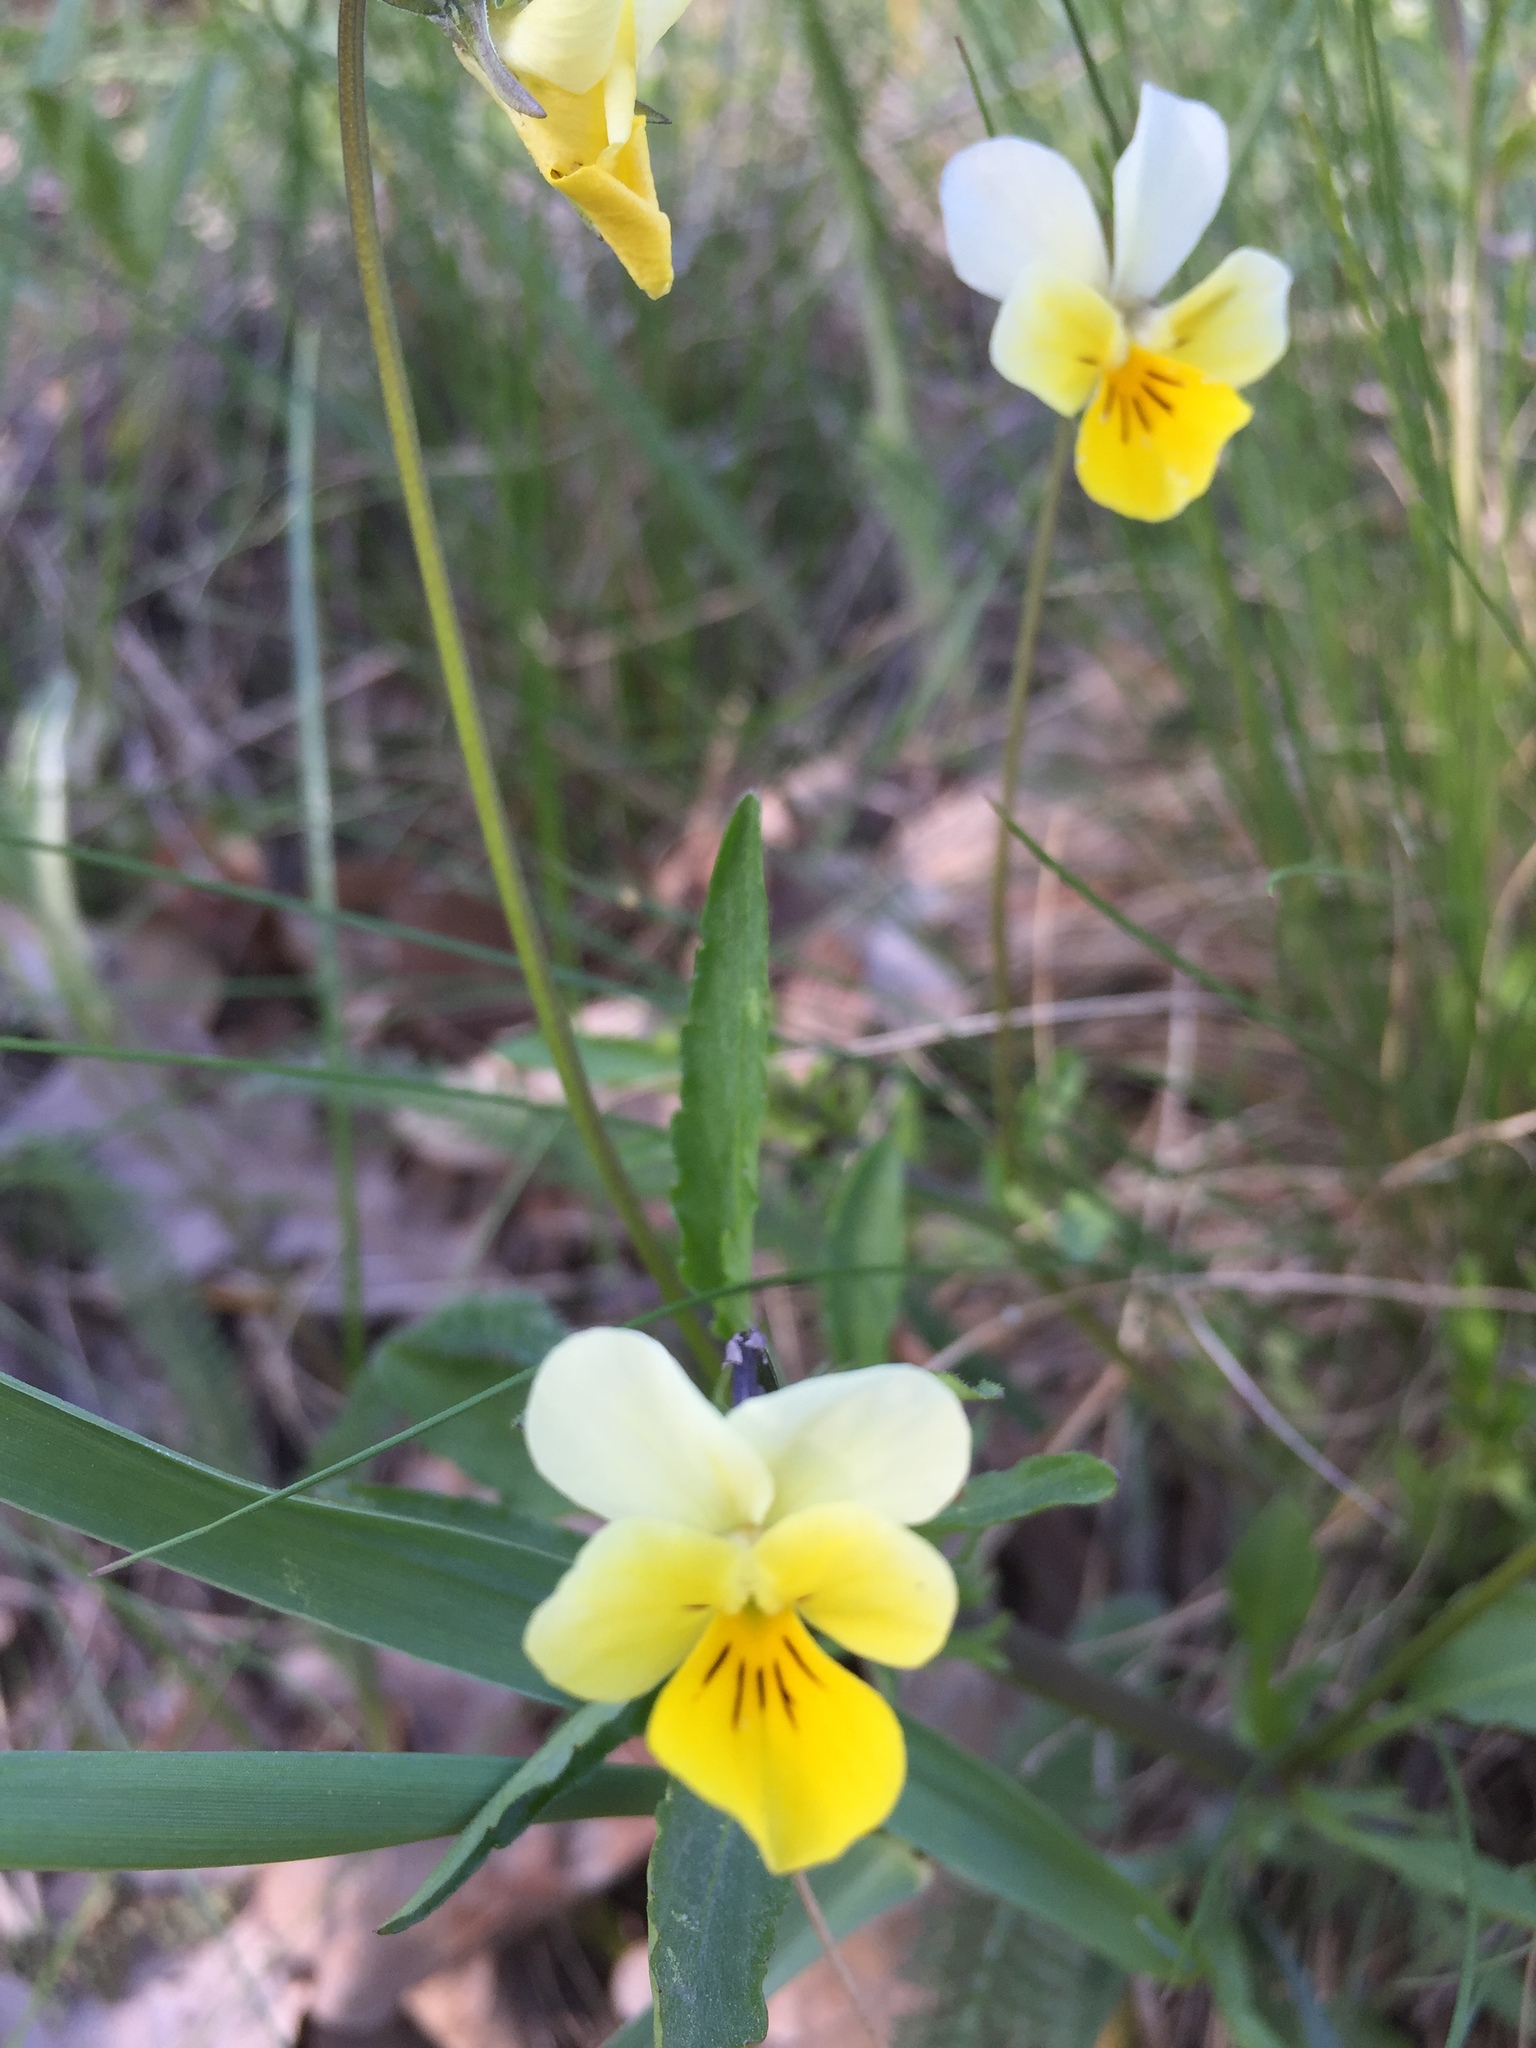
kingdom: Plantae
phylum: Tracheophyta
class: Magnoliopsida
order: Malpighiales
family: Violaceae
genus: Viola
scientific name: Viola arvensis
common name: Field pansy
